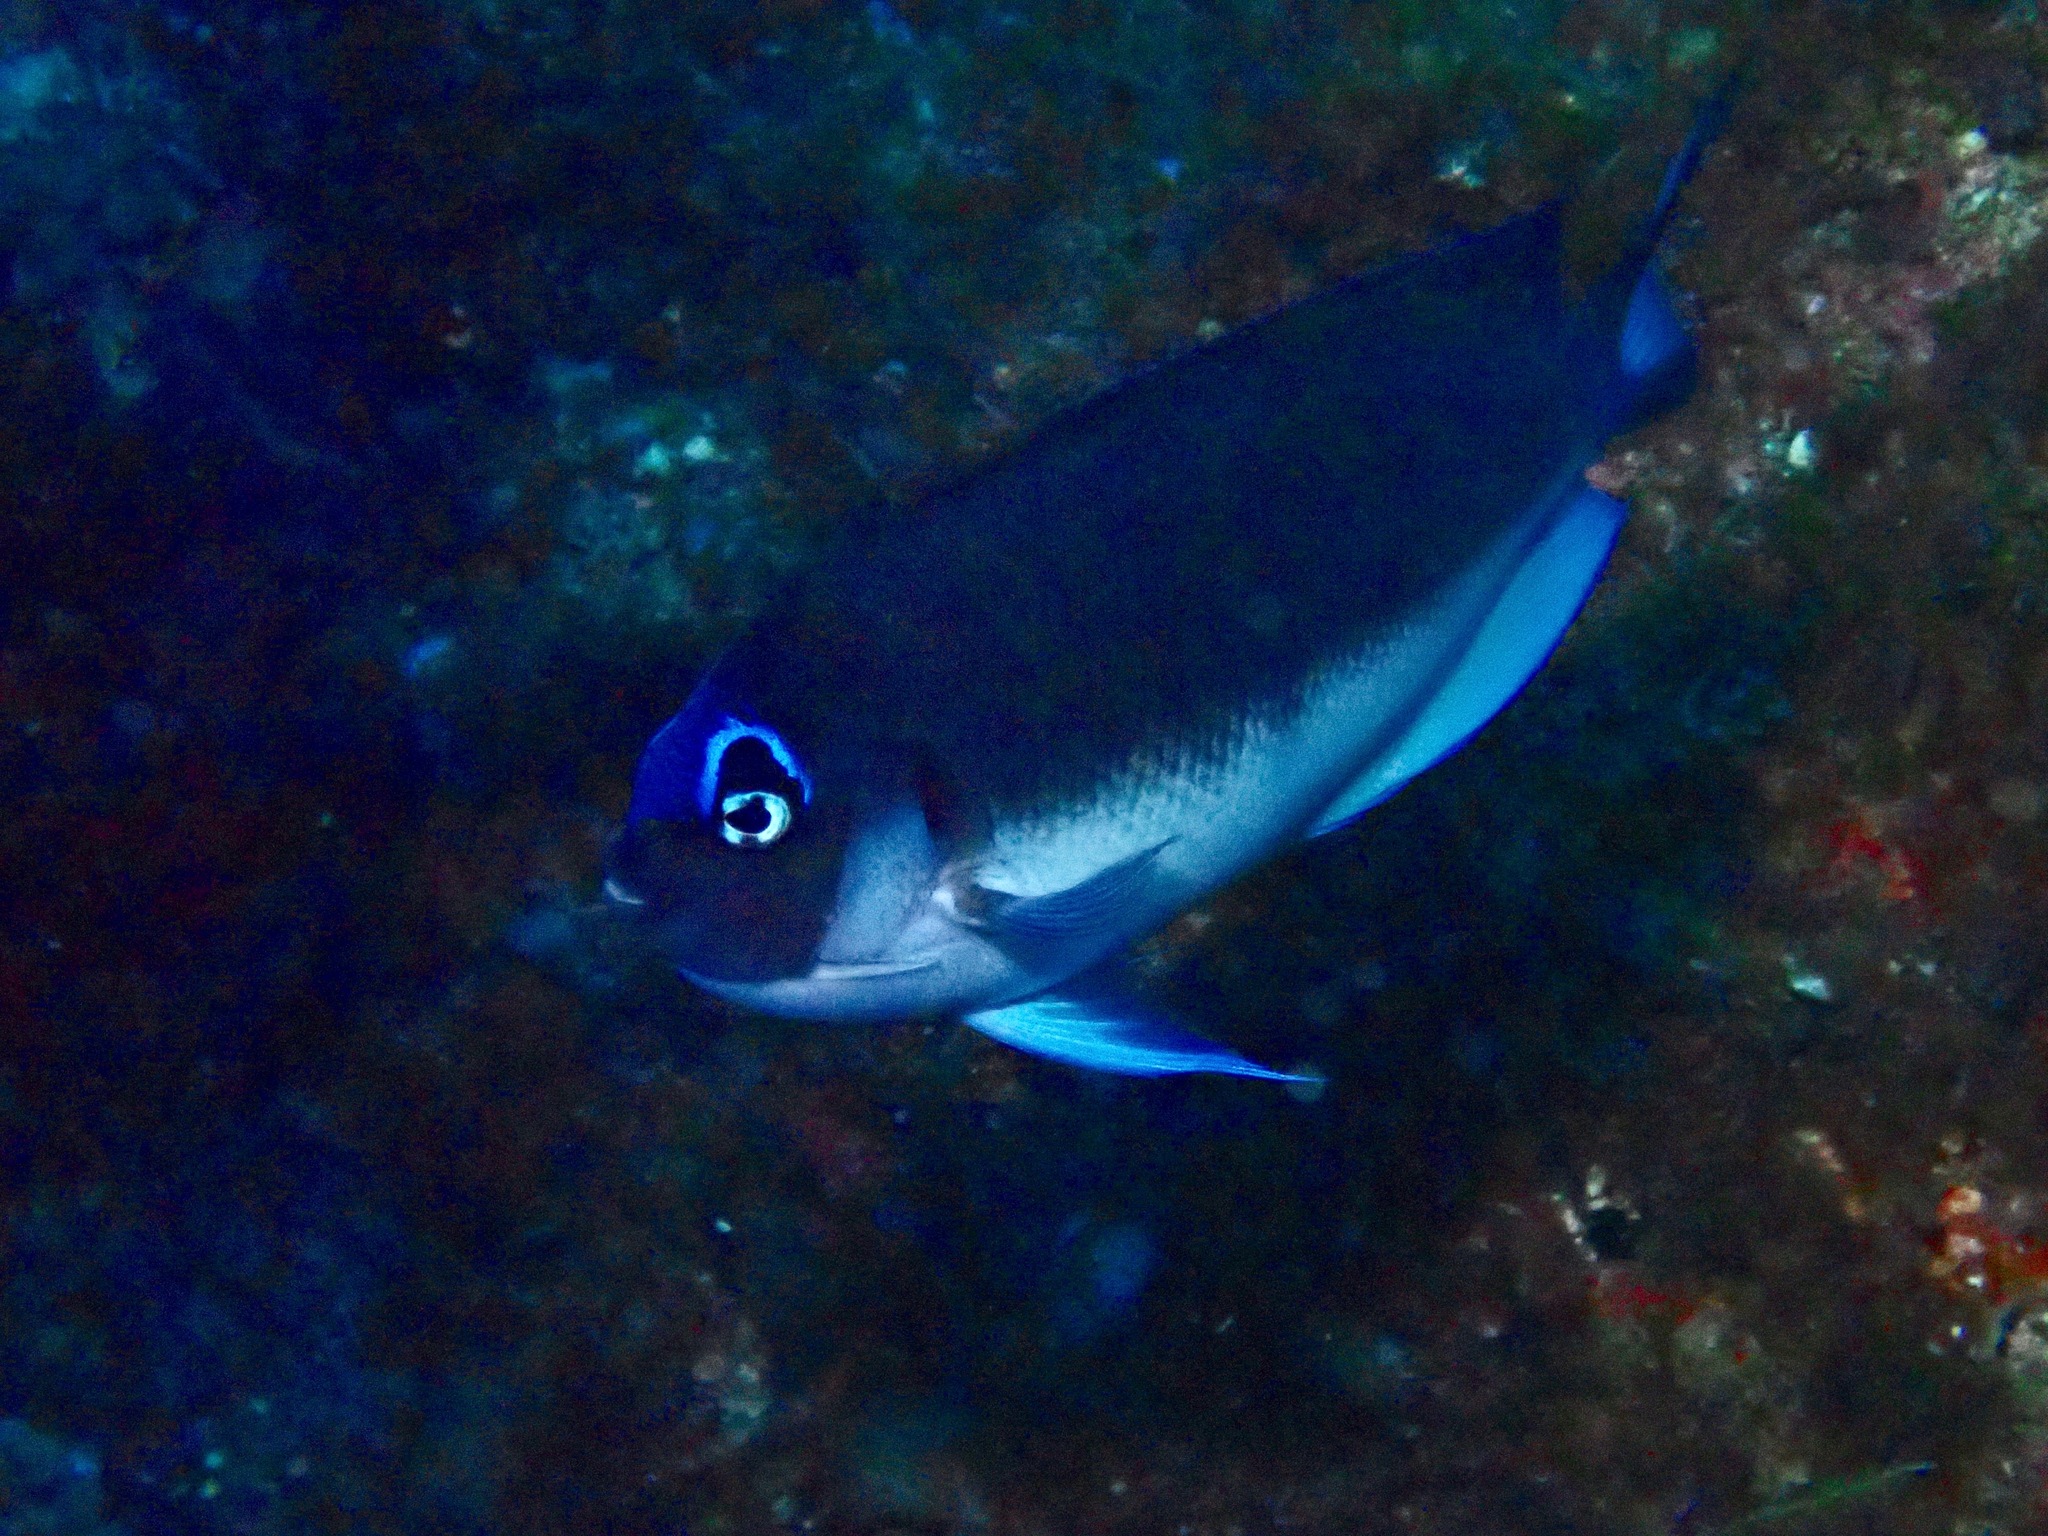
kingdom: Animalia
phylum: Chordata
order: Perciformes
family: Pomacanthidae
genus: Genicanthus
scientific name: Genicanthus semicinctus
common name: Half-banded angelfish
